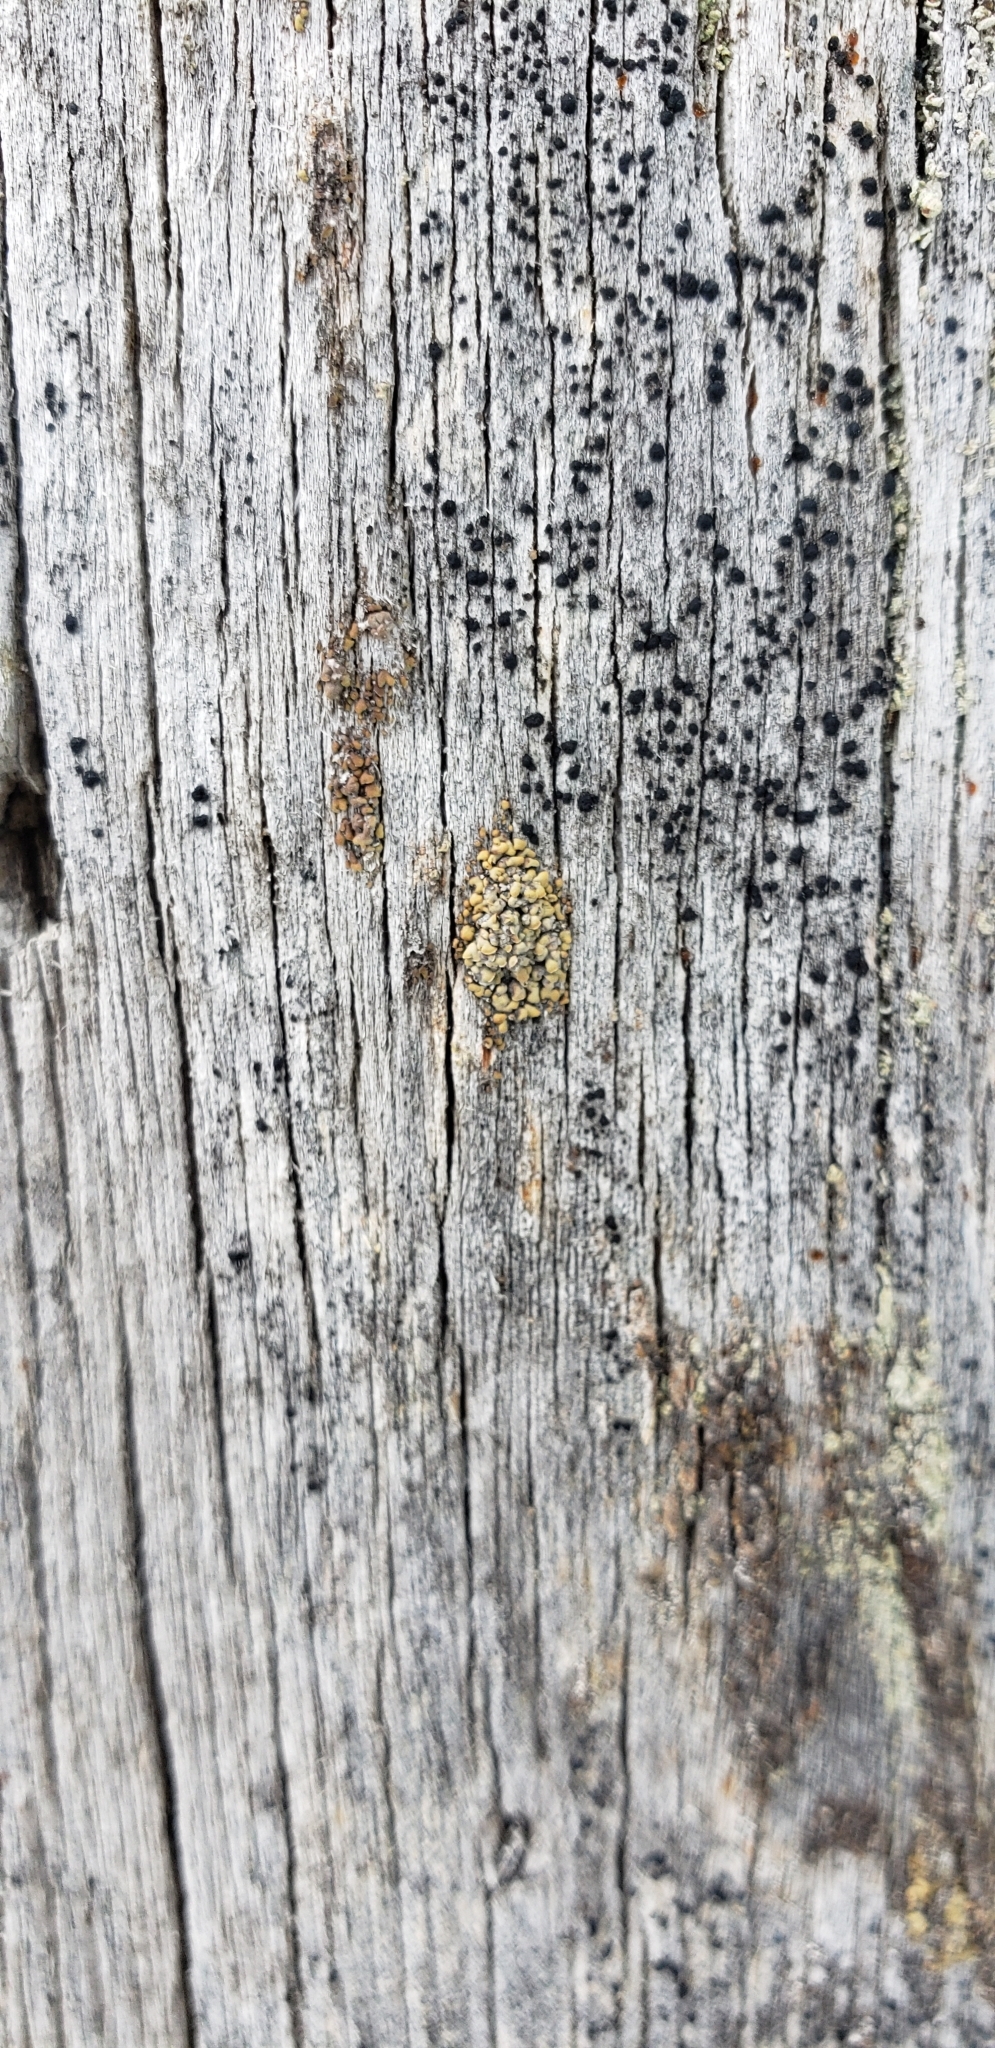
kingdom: Fungi
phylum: Ascomycota
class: Lecanoromycetes
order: Umbilicariales
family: Ophioparmaceae
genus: Hypocenomyce
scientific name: Hypocenomyce scalaris
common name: Common clam lichen
